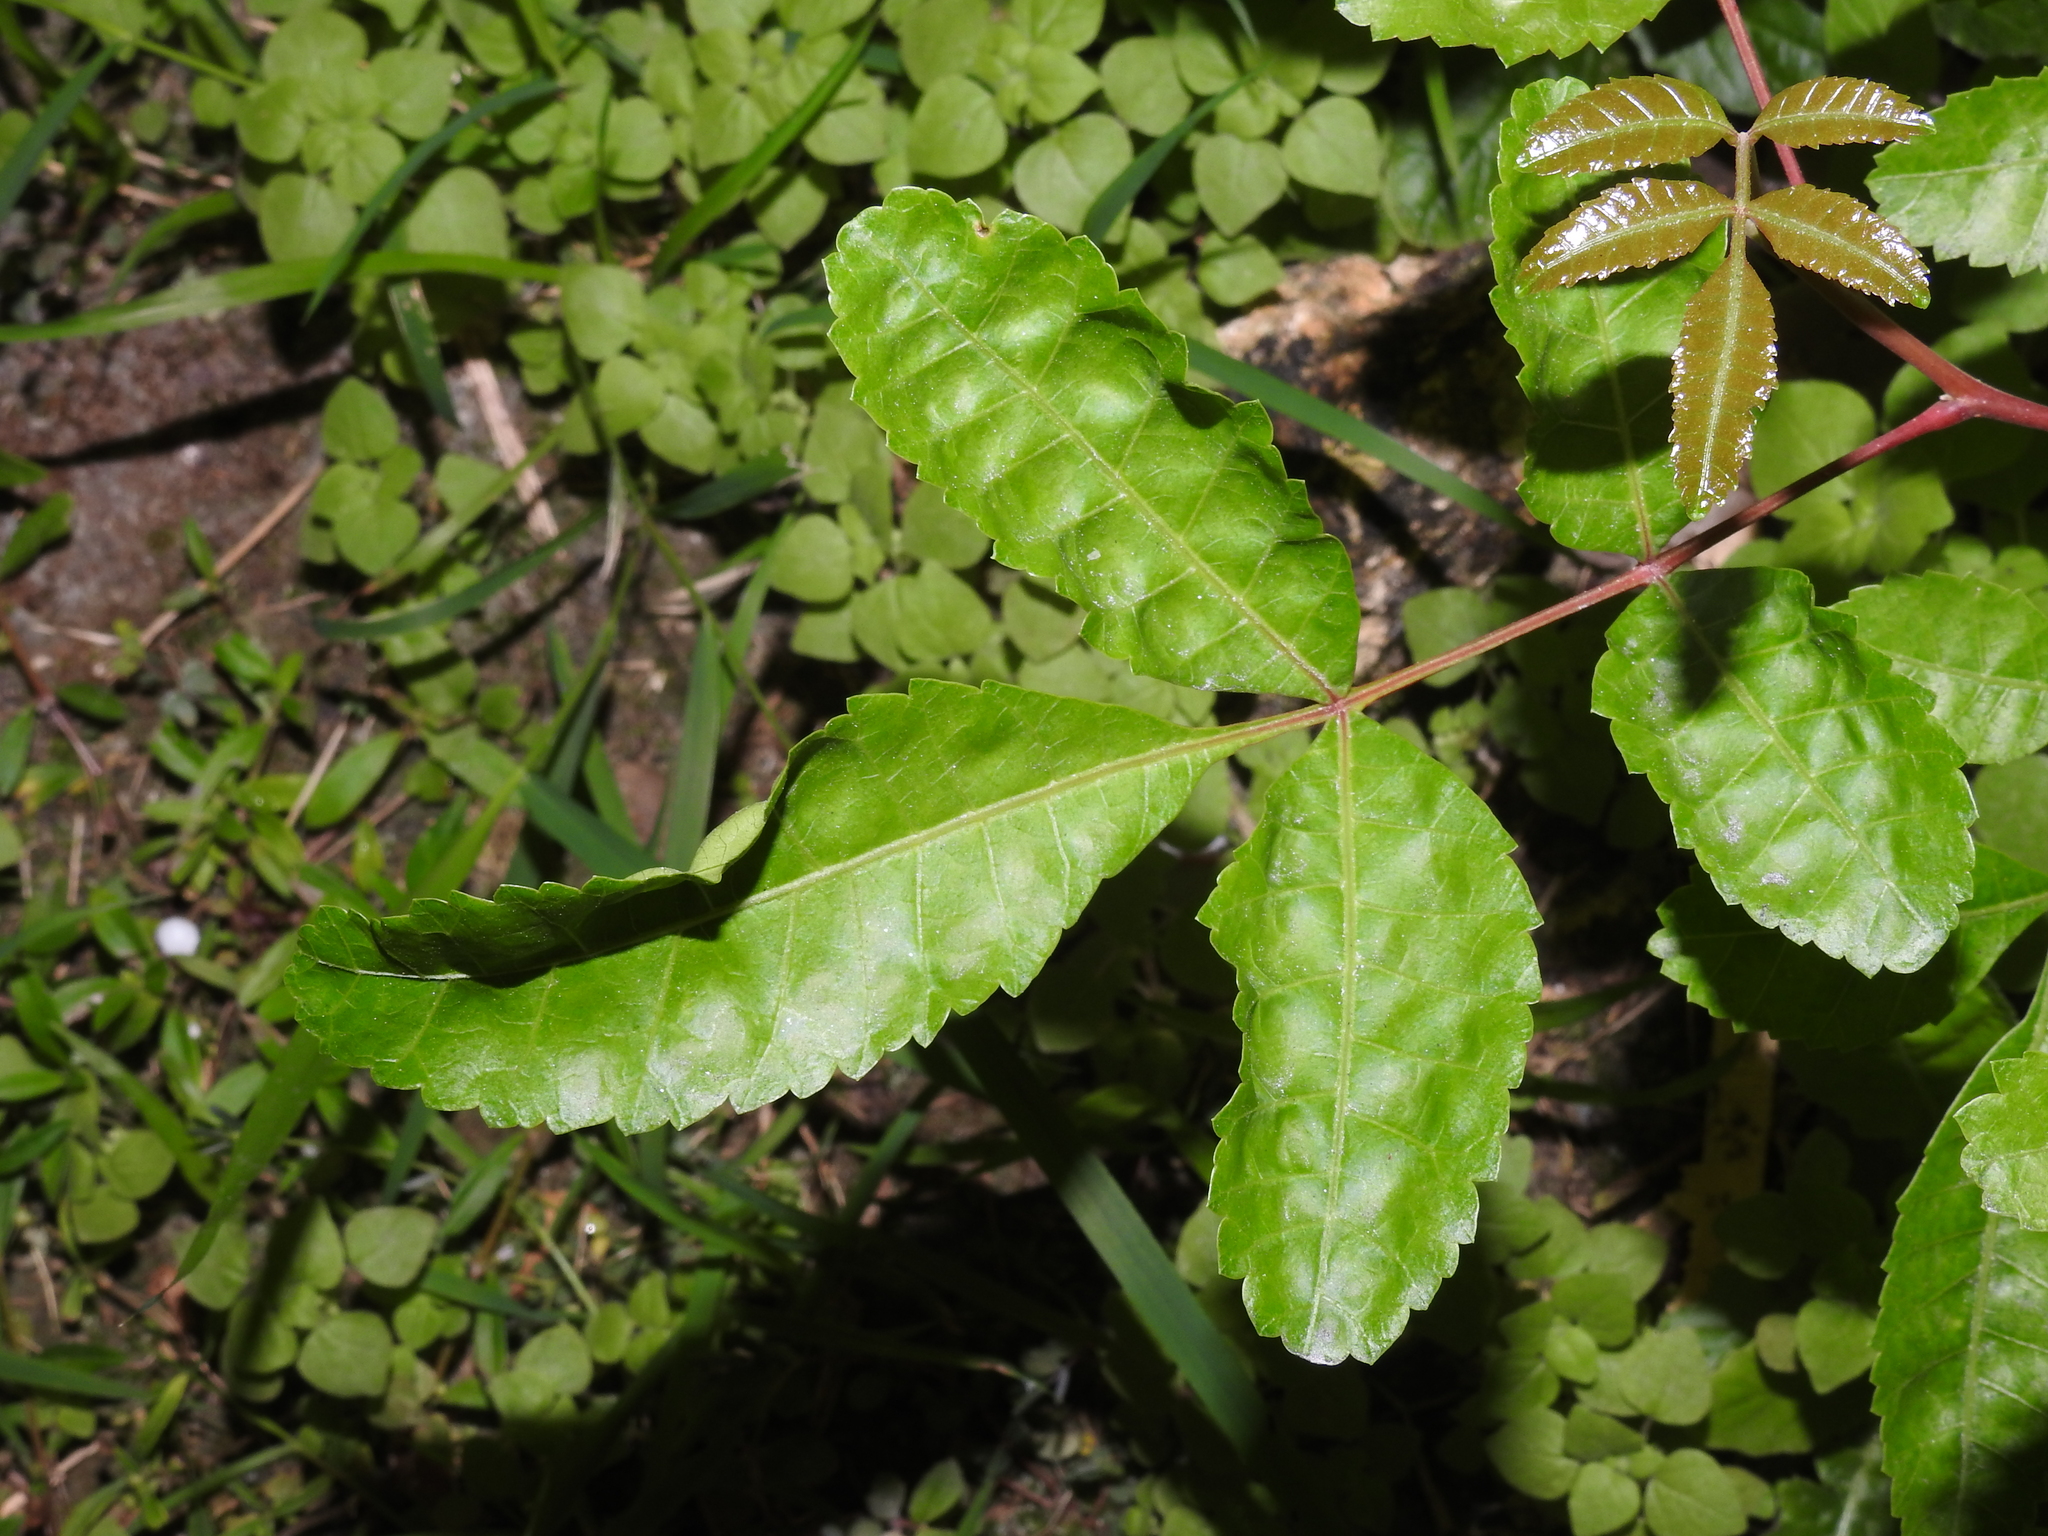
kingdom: Plantae
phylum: Tracheophyta
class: Magnoliopsida
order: Sapindales
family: Anacardiaceae
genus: Schinus
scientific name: Schinus terebinthifolia
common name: Brazilian peppertree
